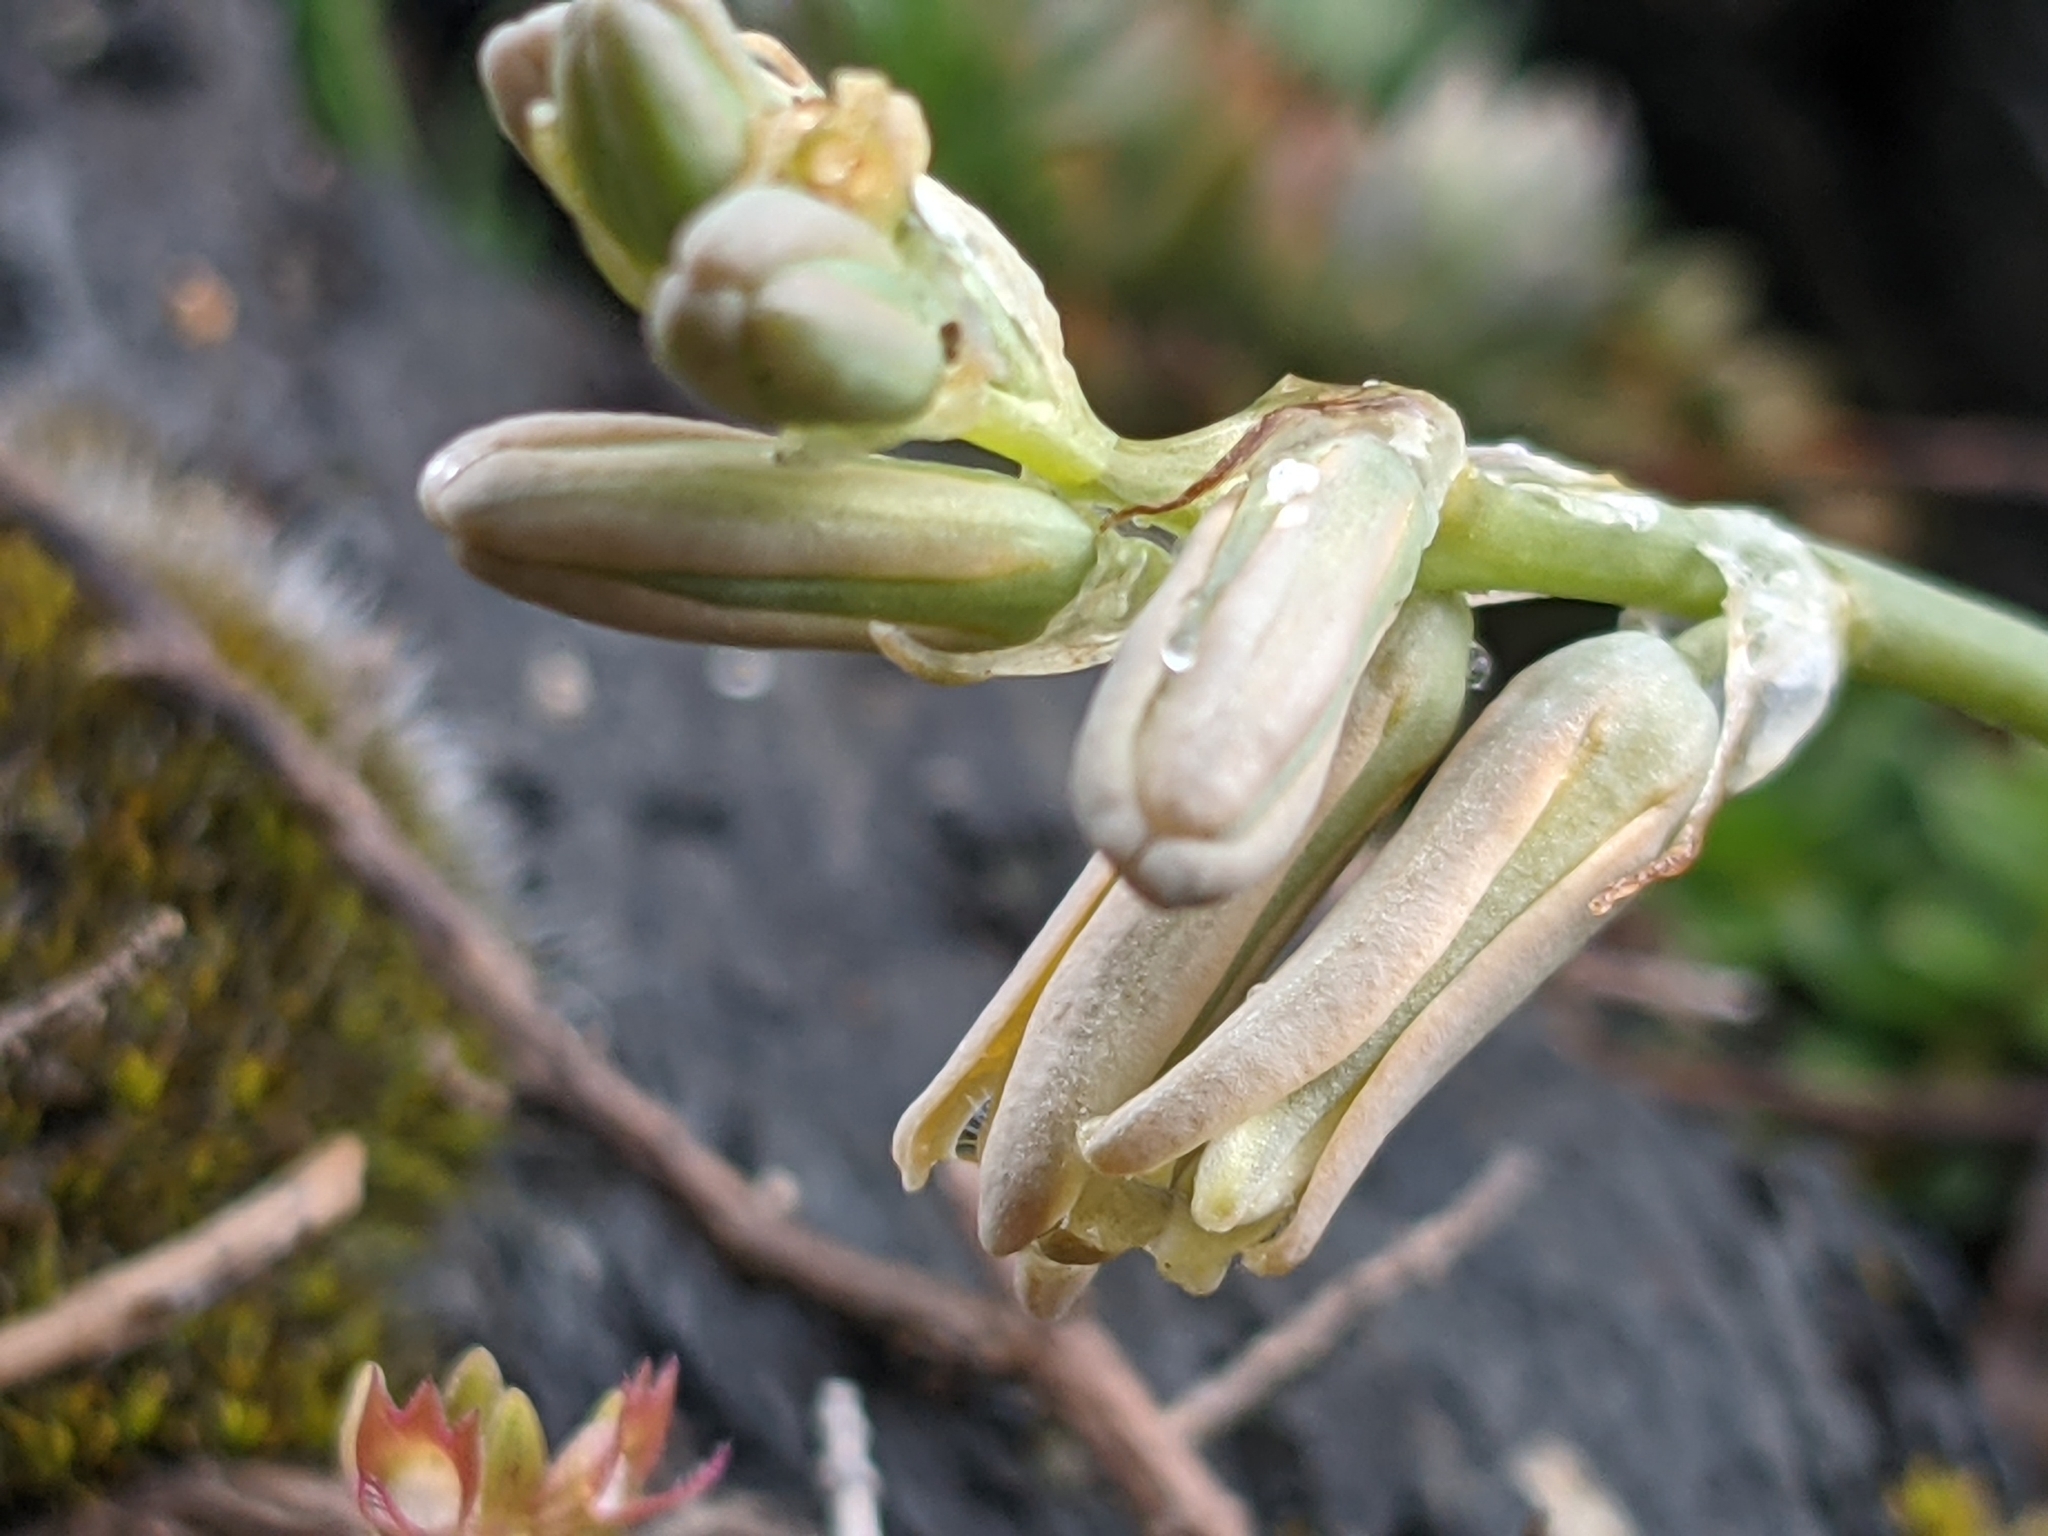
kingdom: Plantae
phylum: Tracheophyta
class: Liliopsida
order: Asparagales
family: Asparagaceae
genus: Dipcadi
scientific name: Dipcadi serotinum
